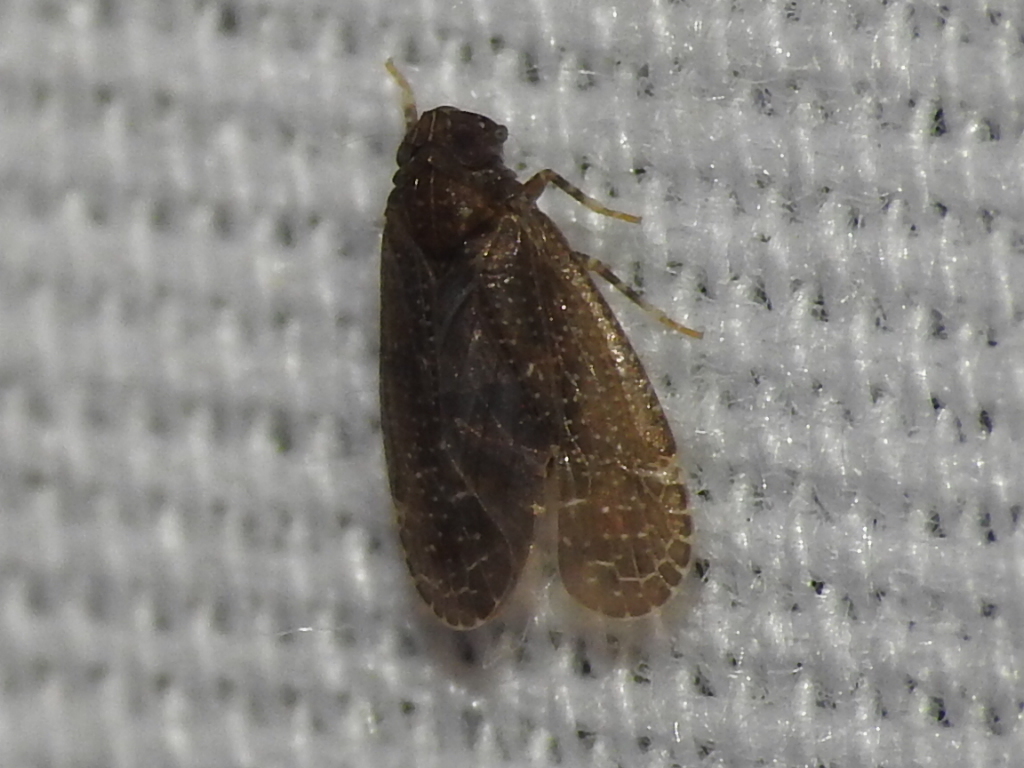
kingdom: Animalia
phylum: Arthropoda
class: Insecta
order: Hemiptera
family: Achilidae
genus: Opsiplanon
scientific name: Opsiplanon luellus
